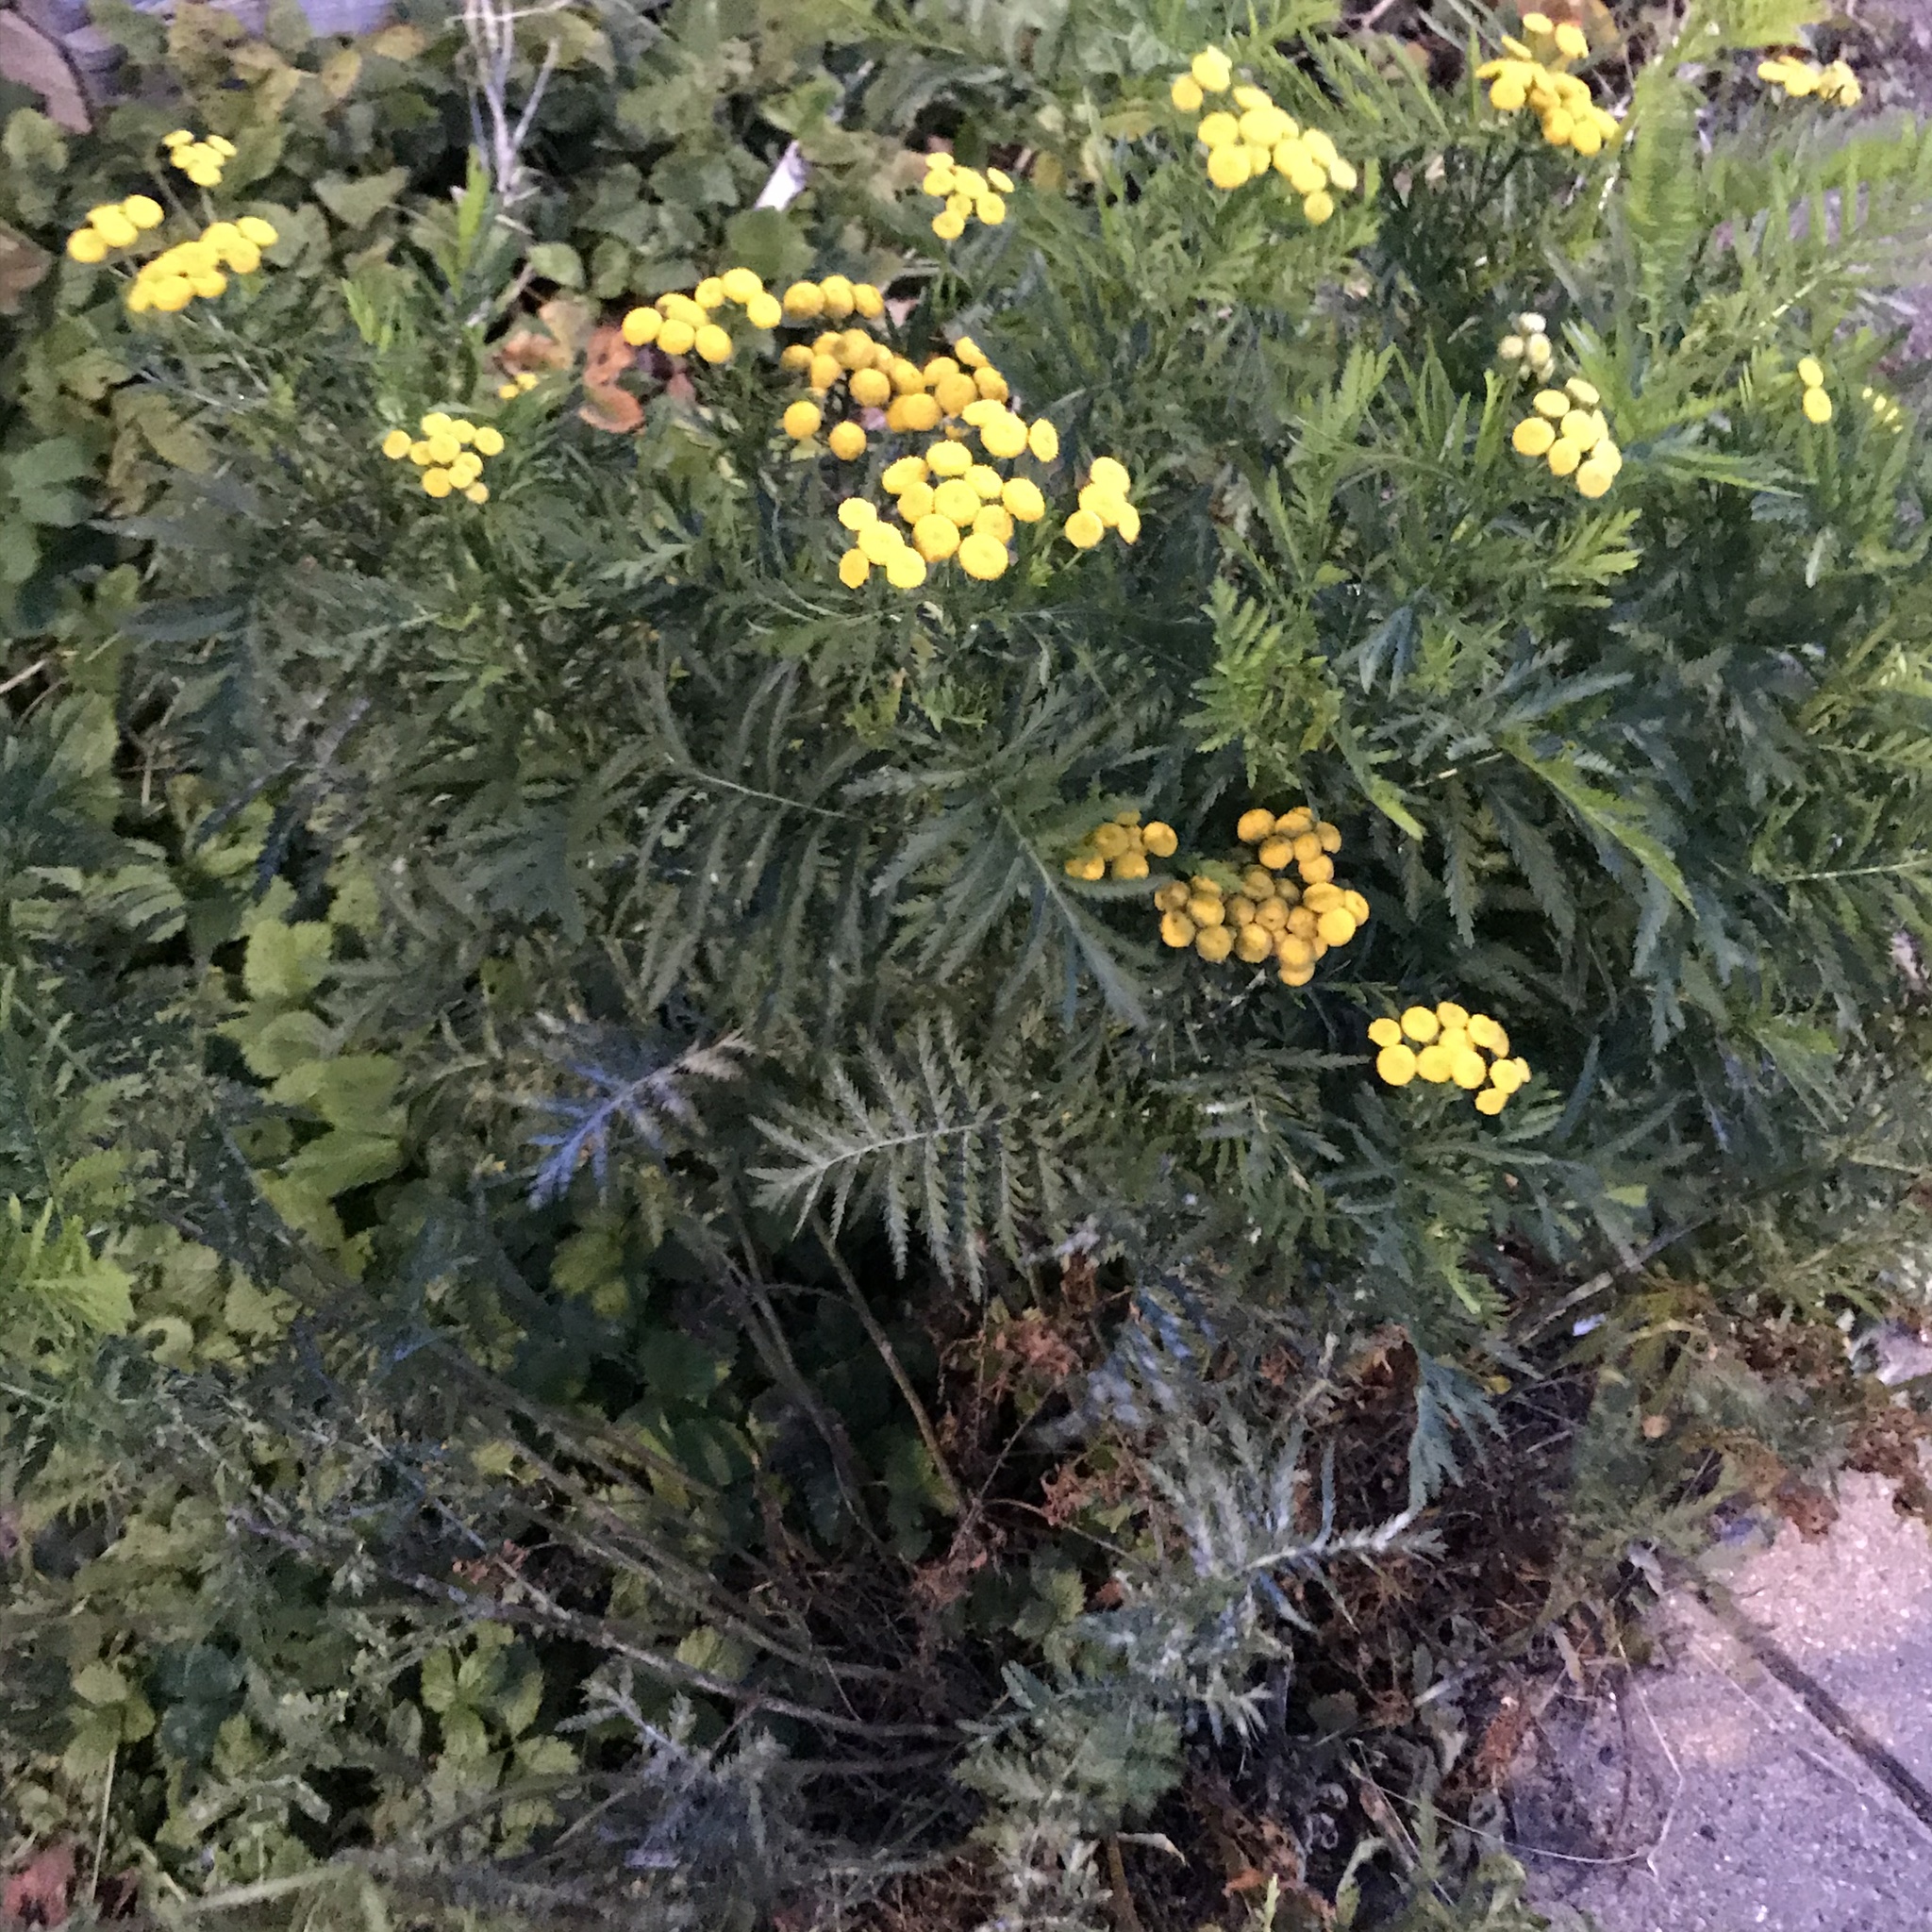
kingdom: Plantae
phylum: Tracheophyta
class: Magnoliopsida
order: Asterales
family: Asteraceae
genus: Tanacetum
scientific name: Tanacetum vulgare
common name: Common tansy
